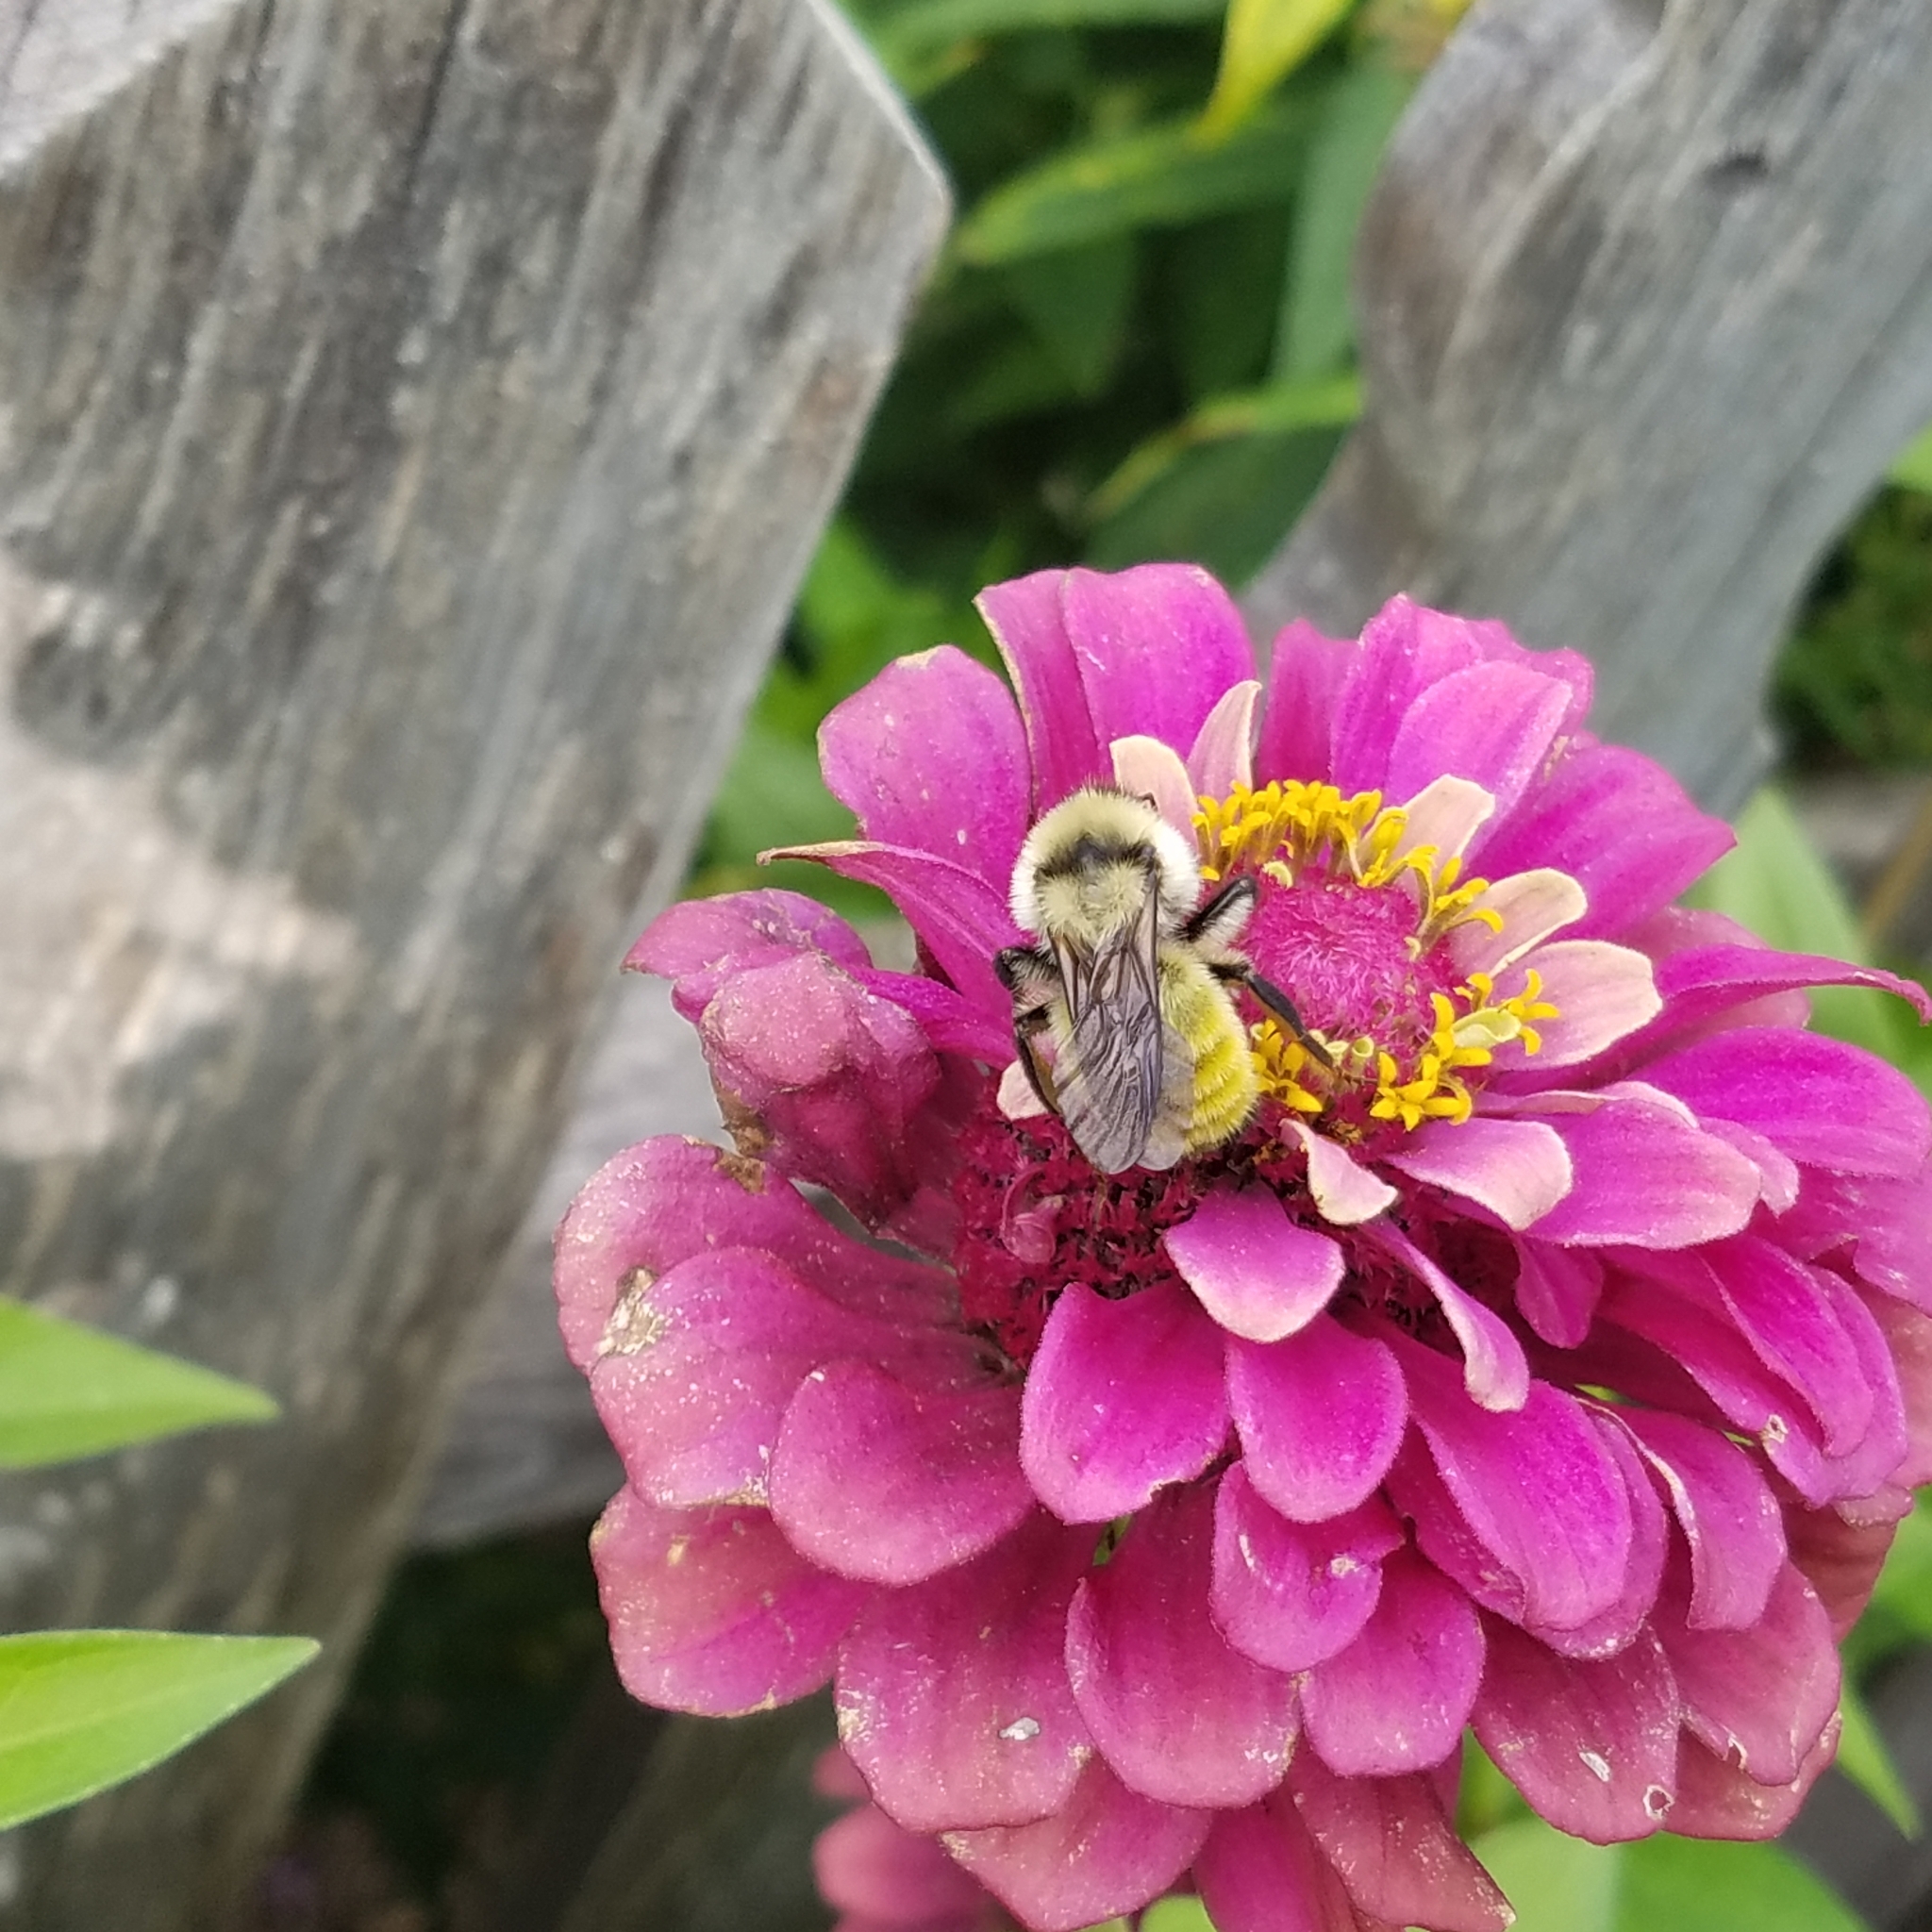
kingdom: Animalia
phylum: Arthropoda
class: Insecta
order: Hymenoptera
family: Apidae
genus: Bombus
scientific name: Bombus fervidus
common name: Yellow bumble bee
